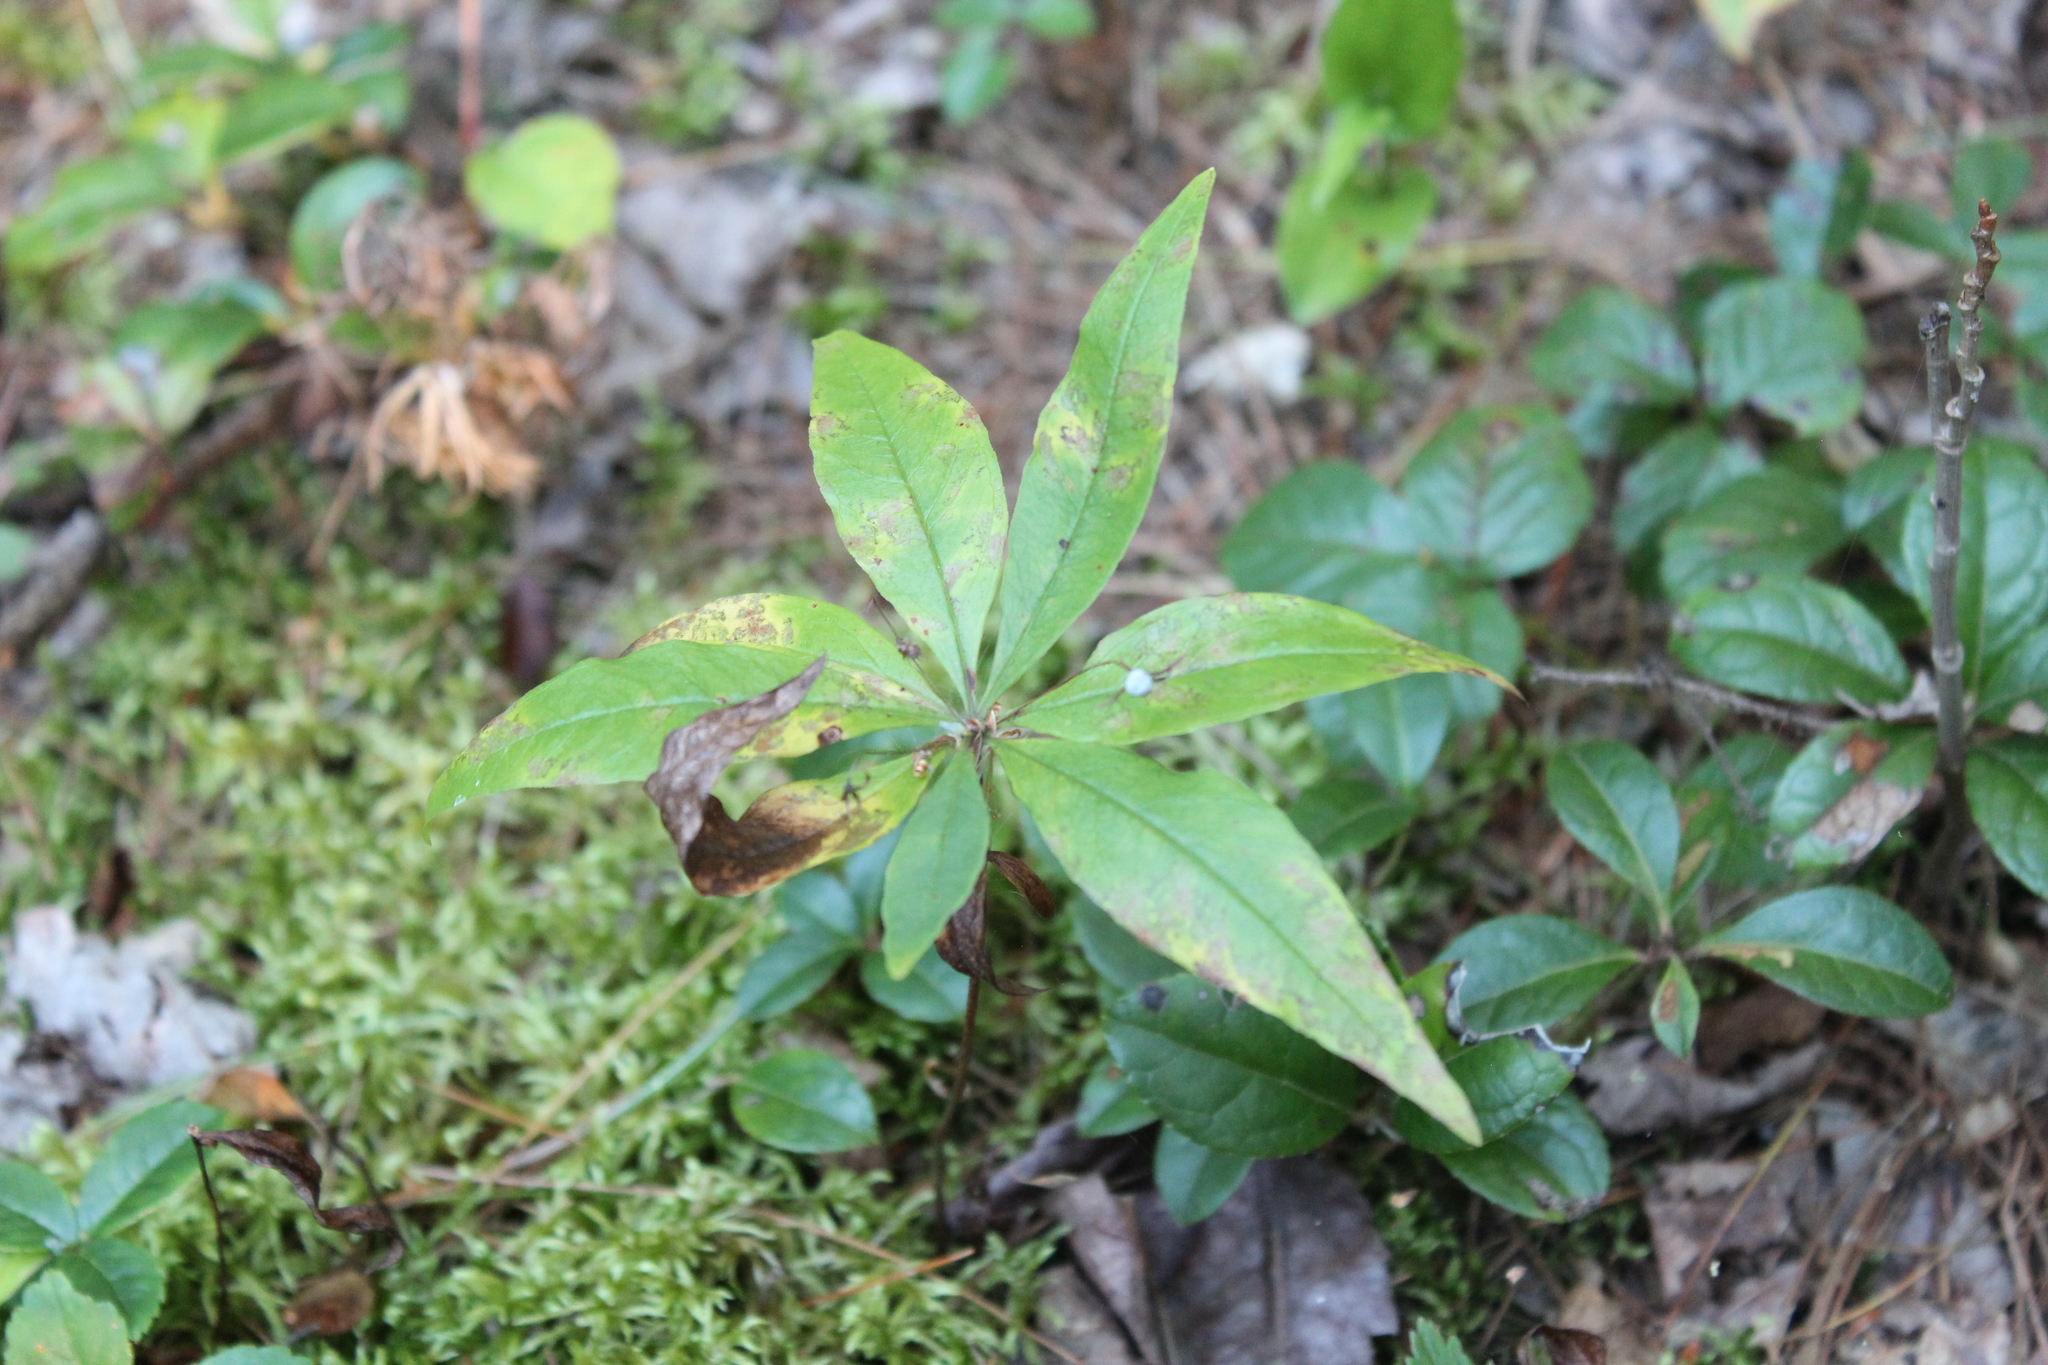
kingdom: Plantae
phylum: Tracheophyta
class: Magnoliopsida
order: Ericales
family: Primulaceae
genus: Lysimachia
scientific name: Lysimachia borealis
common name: American starflower
